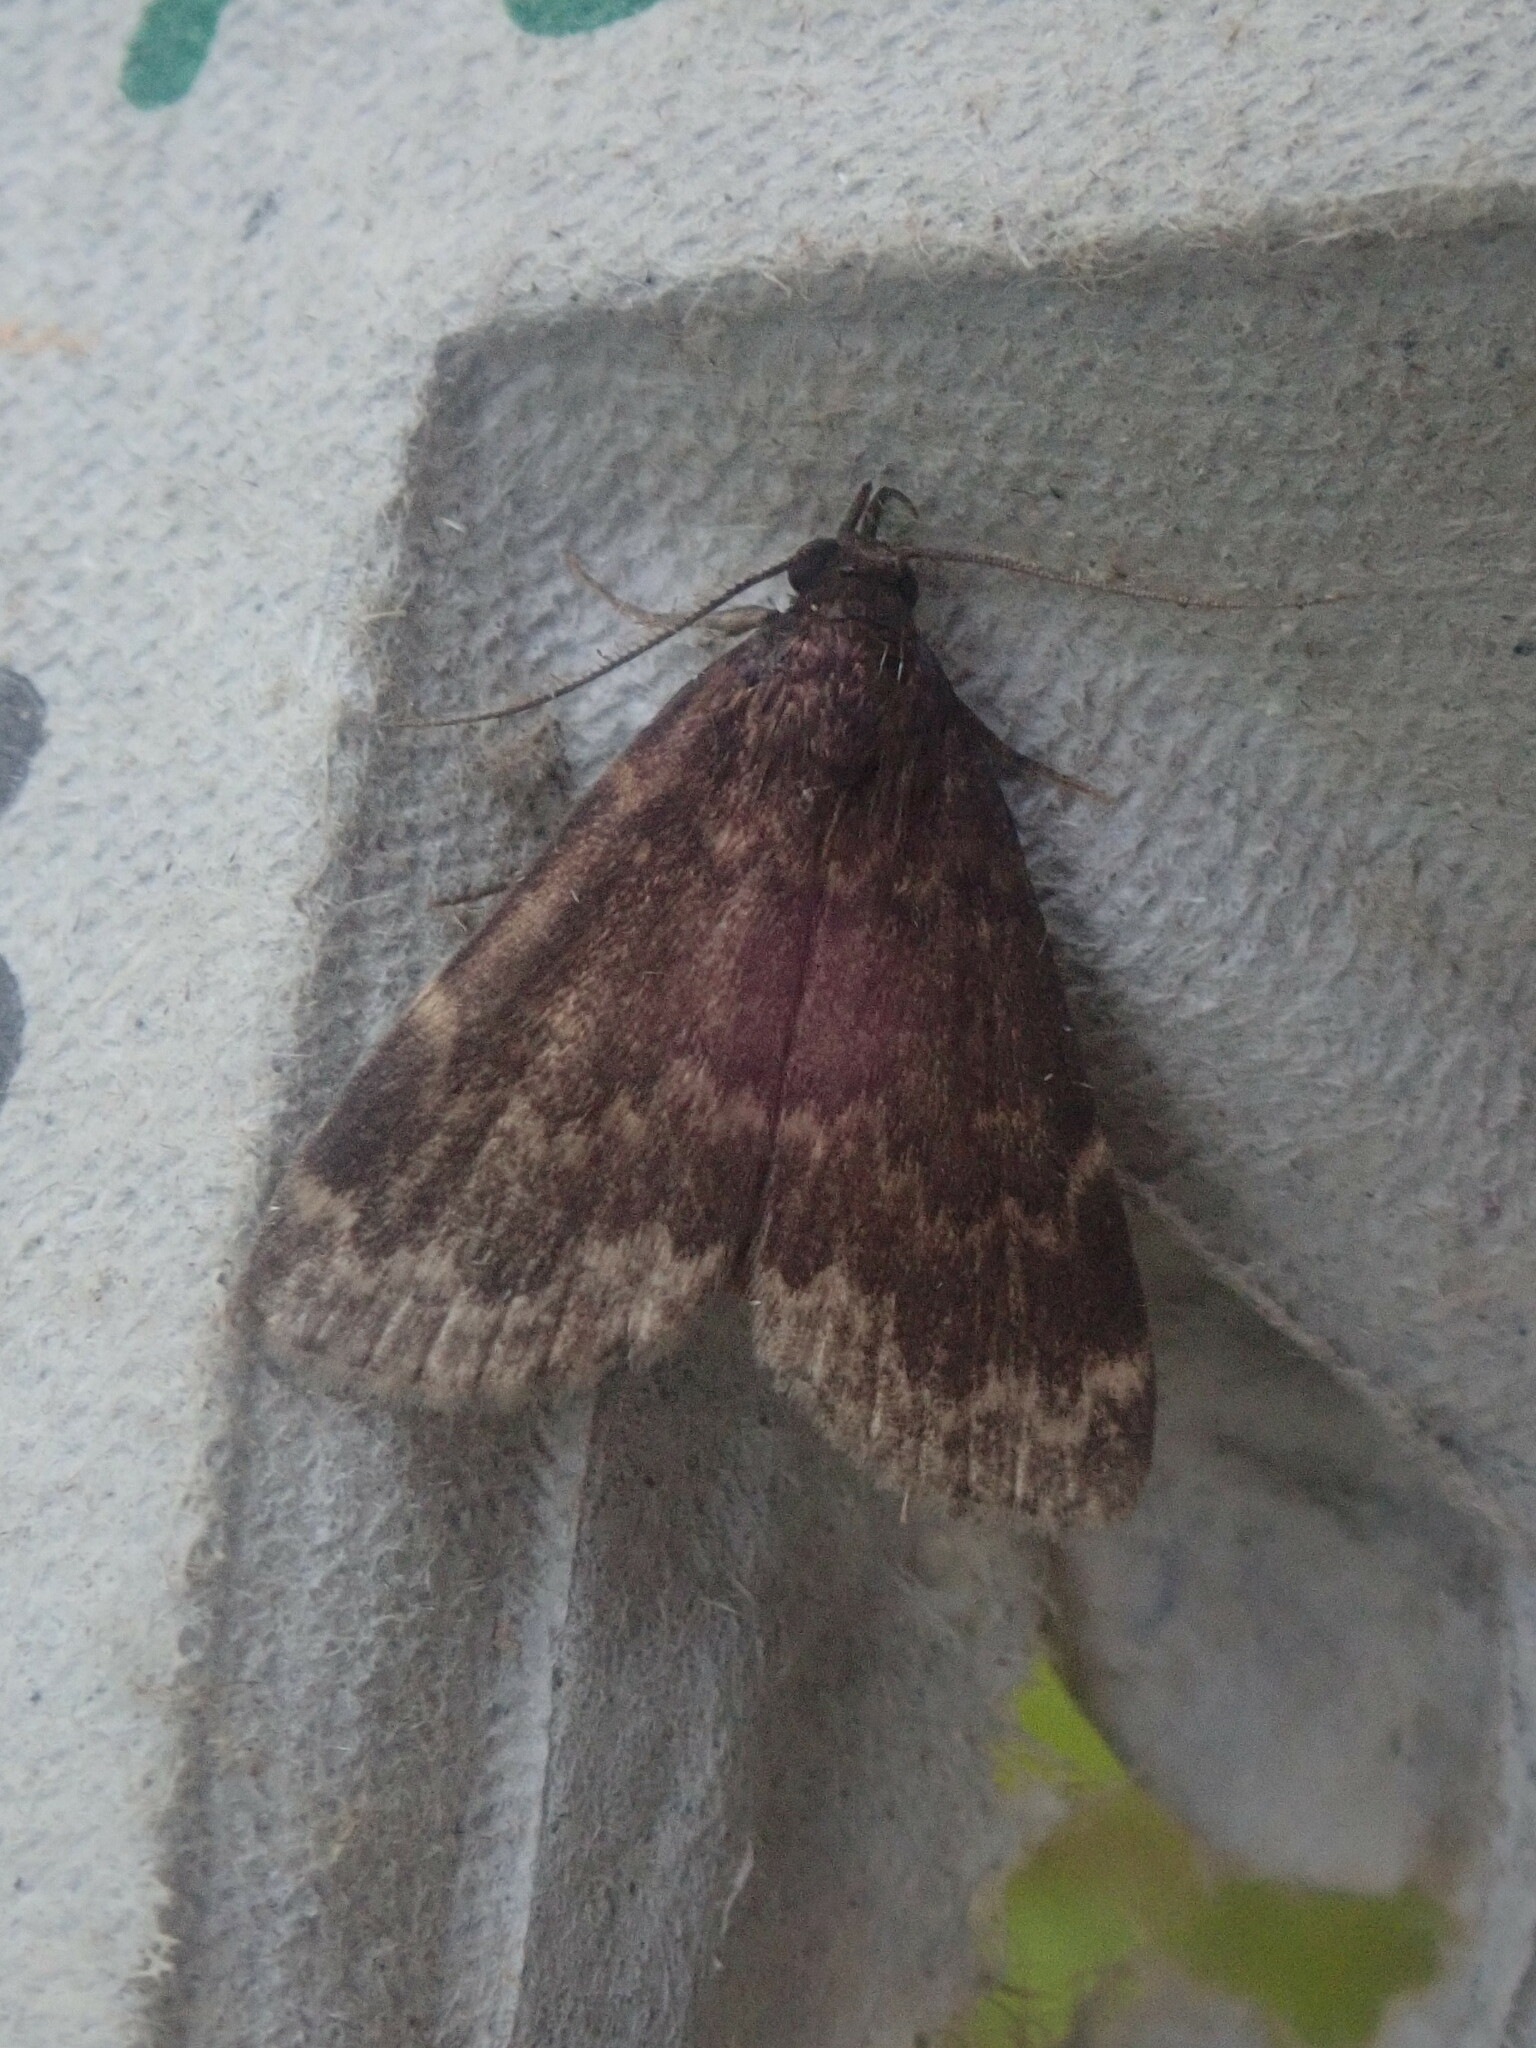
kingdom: Animalia
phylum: Arthropoda
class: Insecta
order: Lepidoptera
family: Erebidae
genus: Idia
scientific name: Idia lubricalis
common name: Twin-striped tabby
